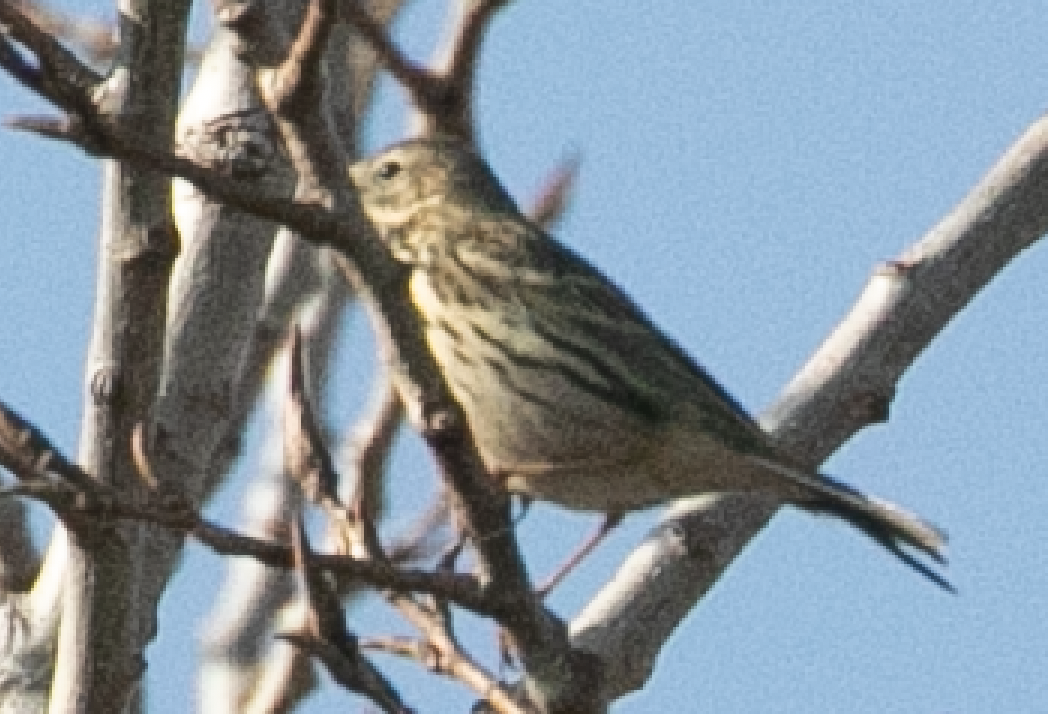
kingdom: Animalia
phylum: Chordata
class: Aves
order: Passeriformes
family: Motacillidae
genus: Anthus
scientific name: Anthus pratensis
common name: Meadow pipit
